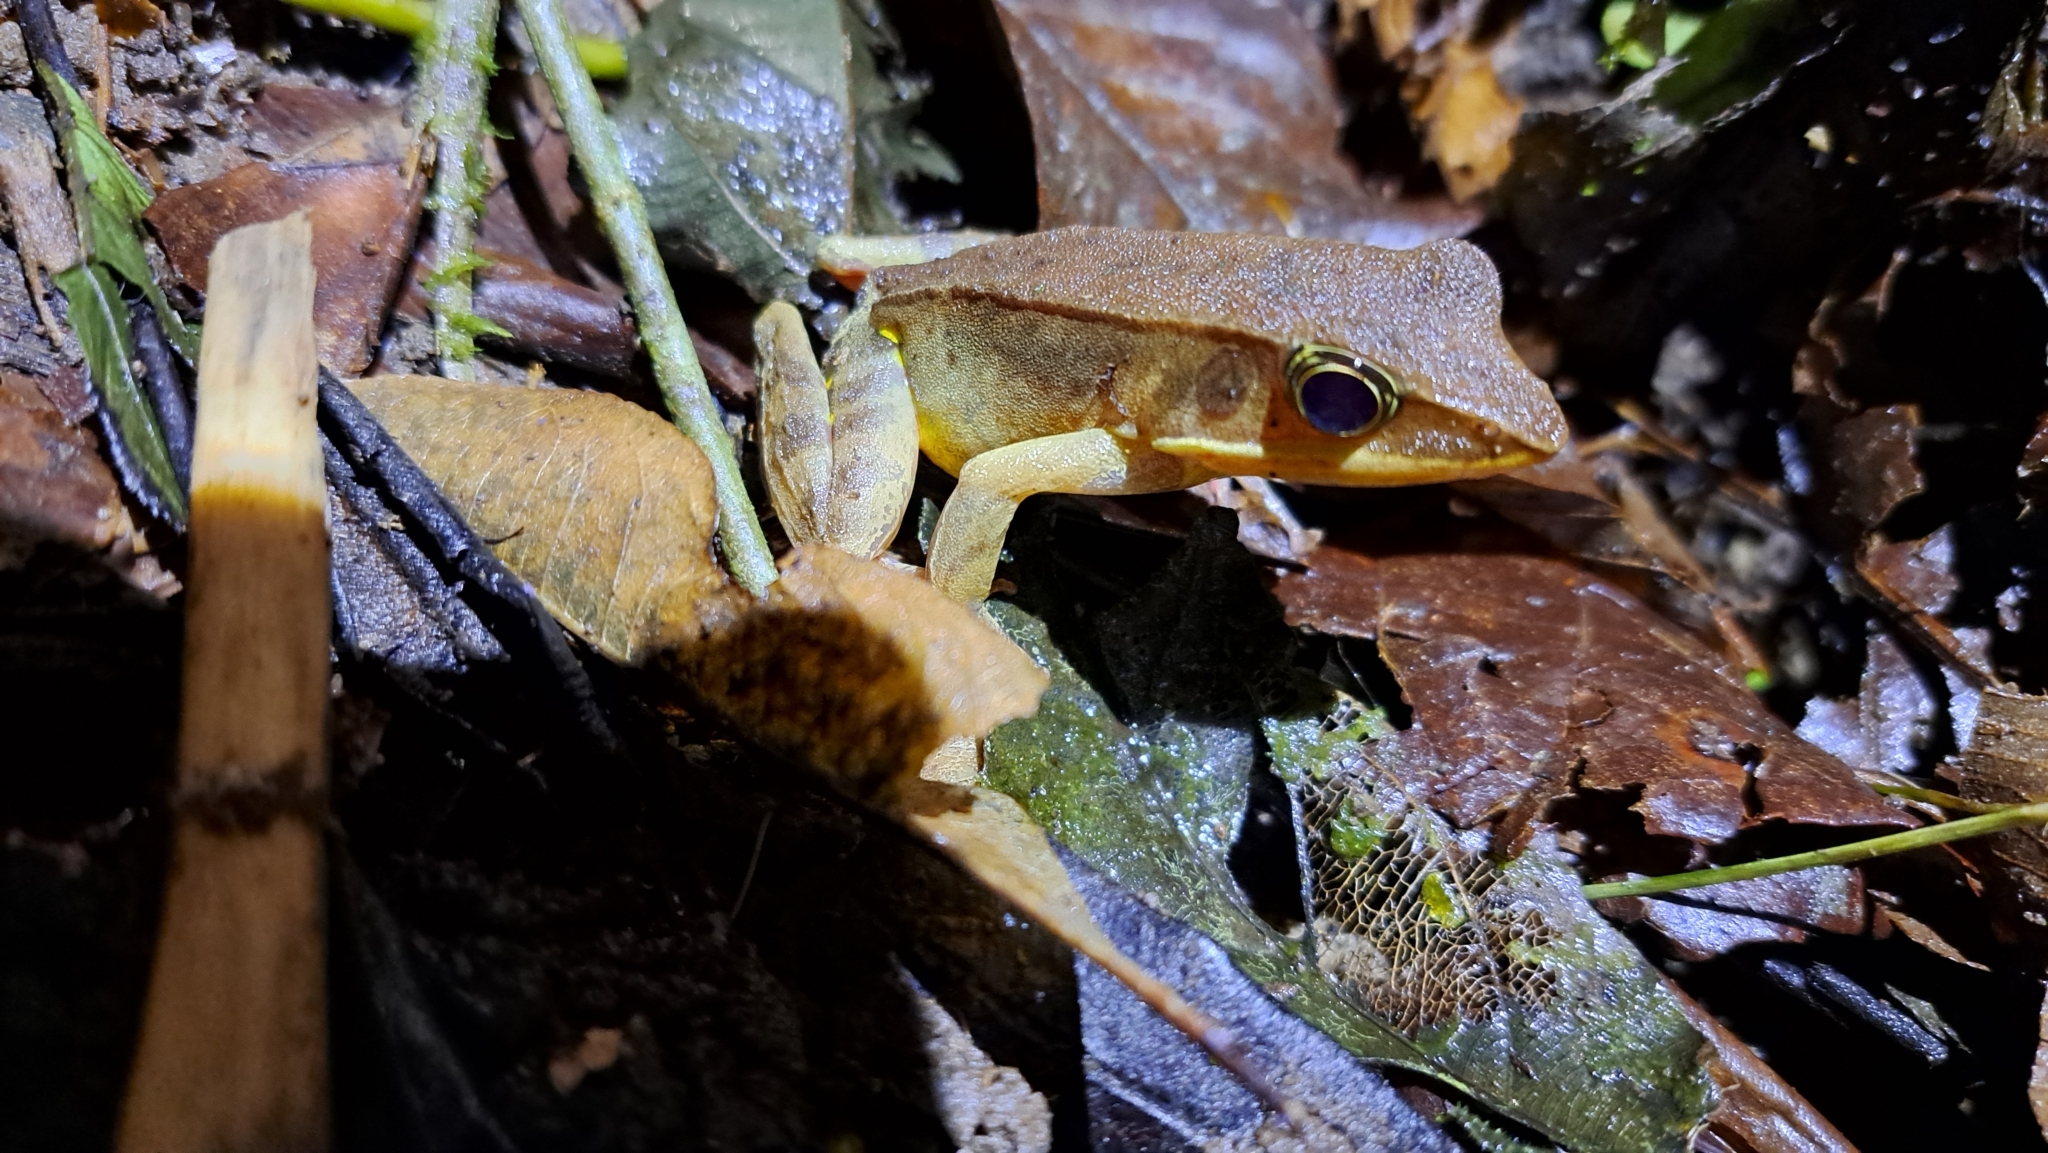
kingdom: Animalia
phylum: Chordata
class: Amphibia
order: Anura
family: Ranidae
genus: Lithobates
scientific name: Lithobates warszewitschii
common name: Warszewitsch's frog
